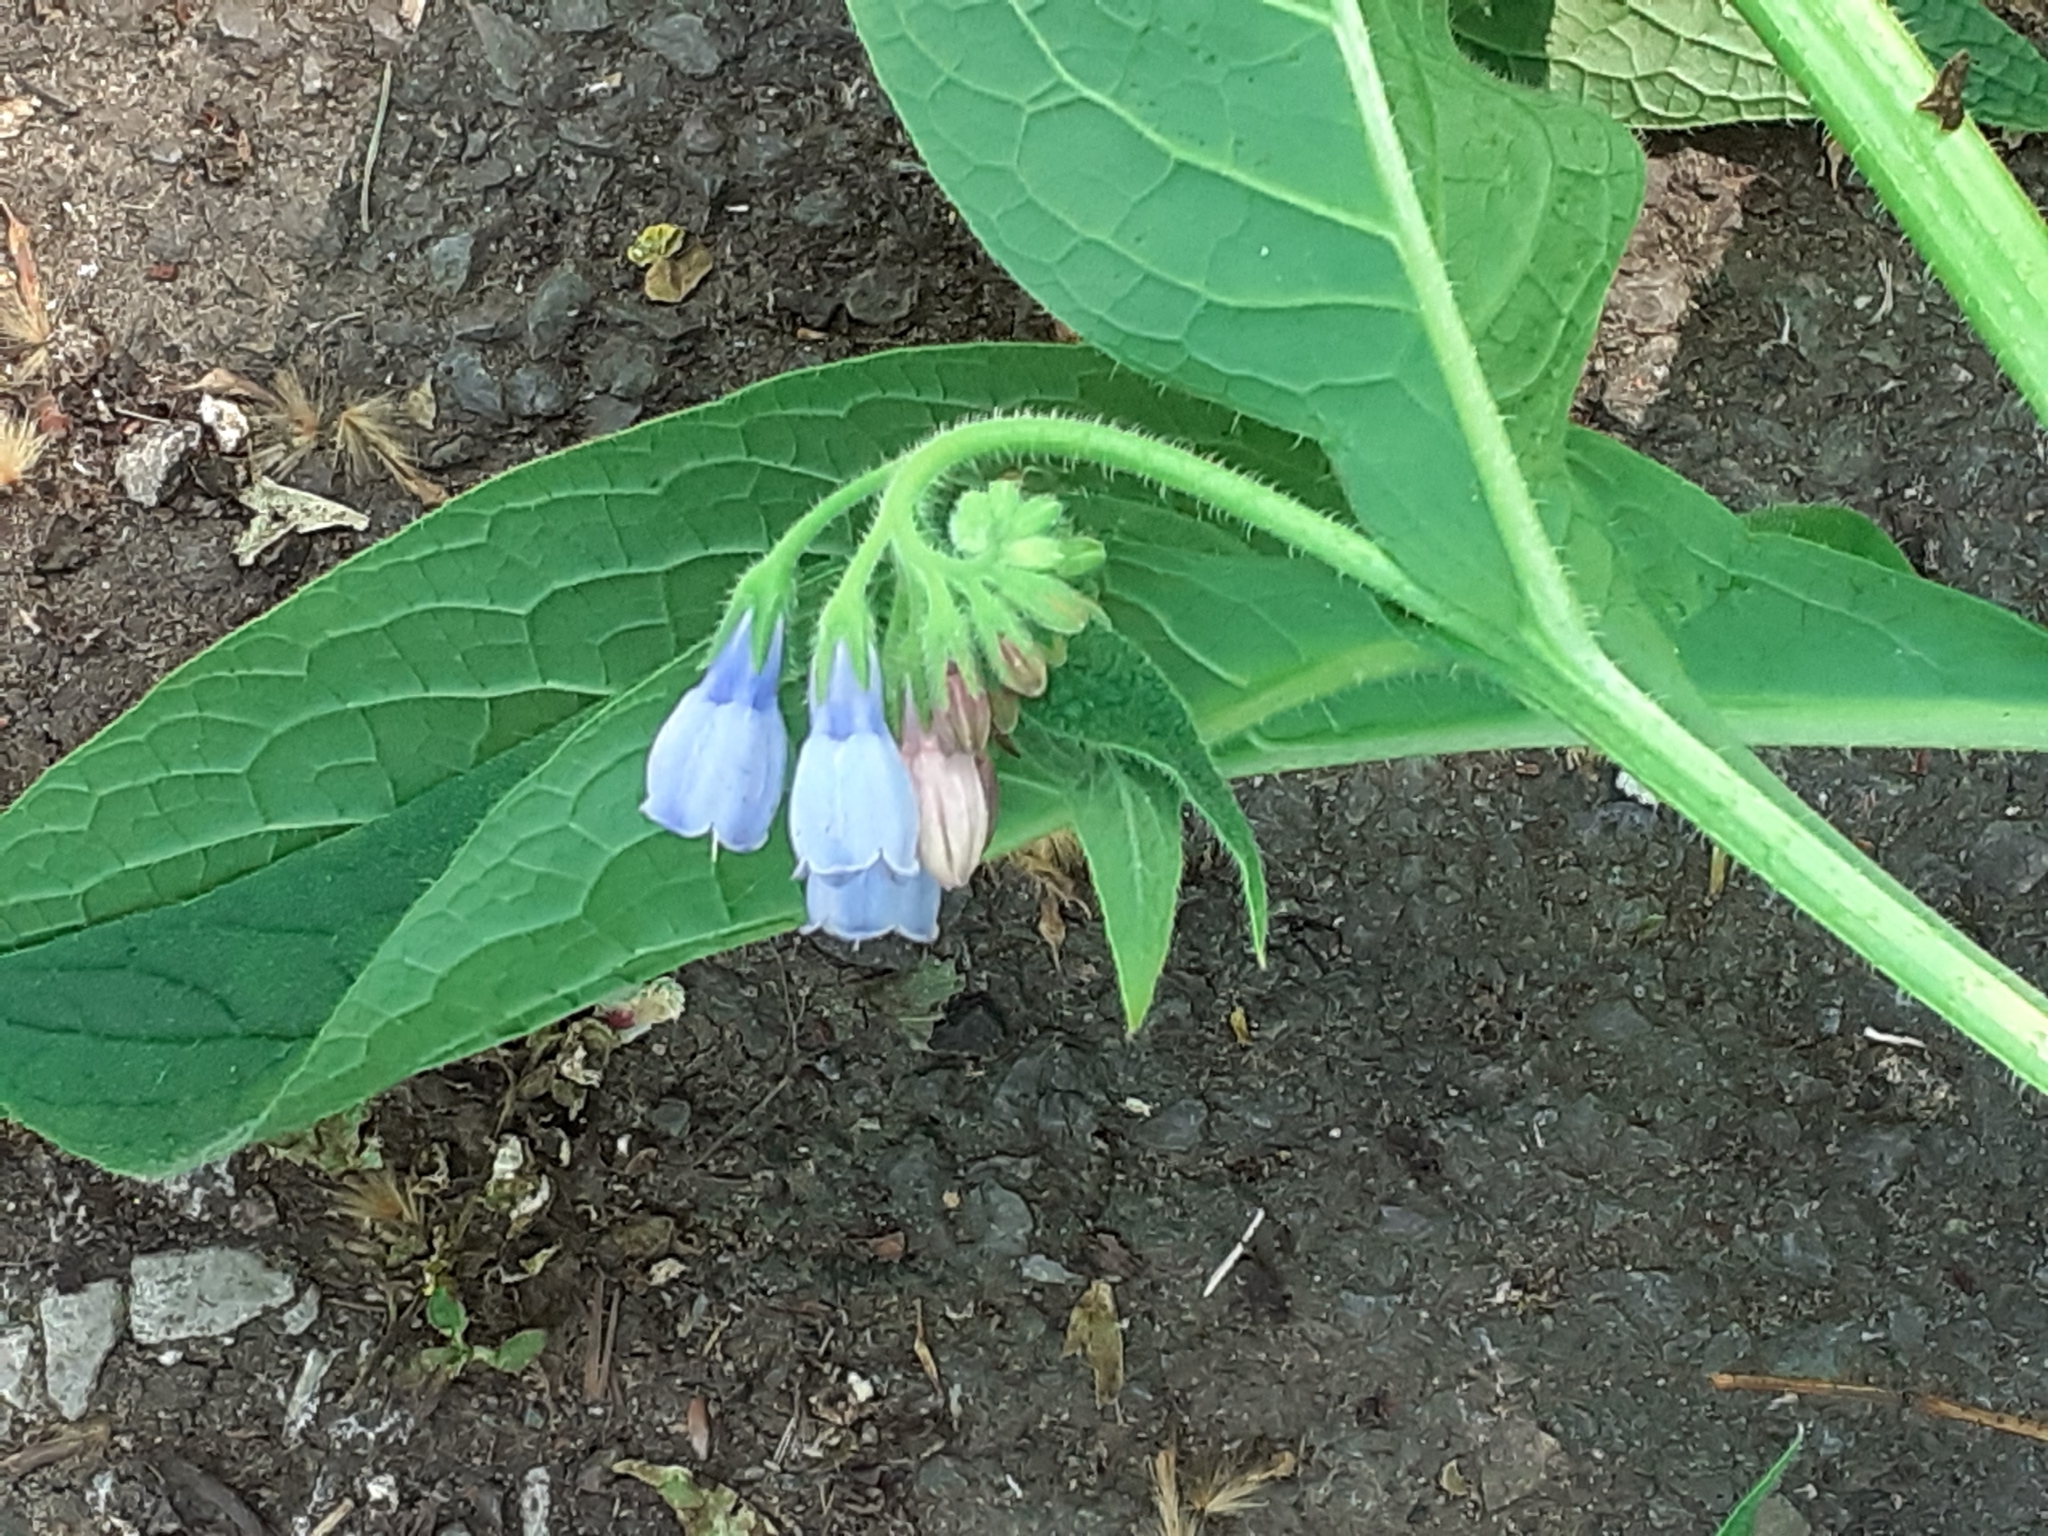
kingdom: Plantae
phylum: Tracheophyta
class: Magnoliopsida
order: Boraginales
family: Boraginaceae
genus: Symphytum
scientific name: Symphytum uplandicum
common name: Russian comfrey
